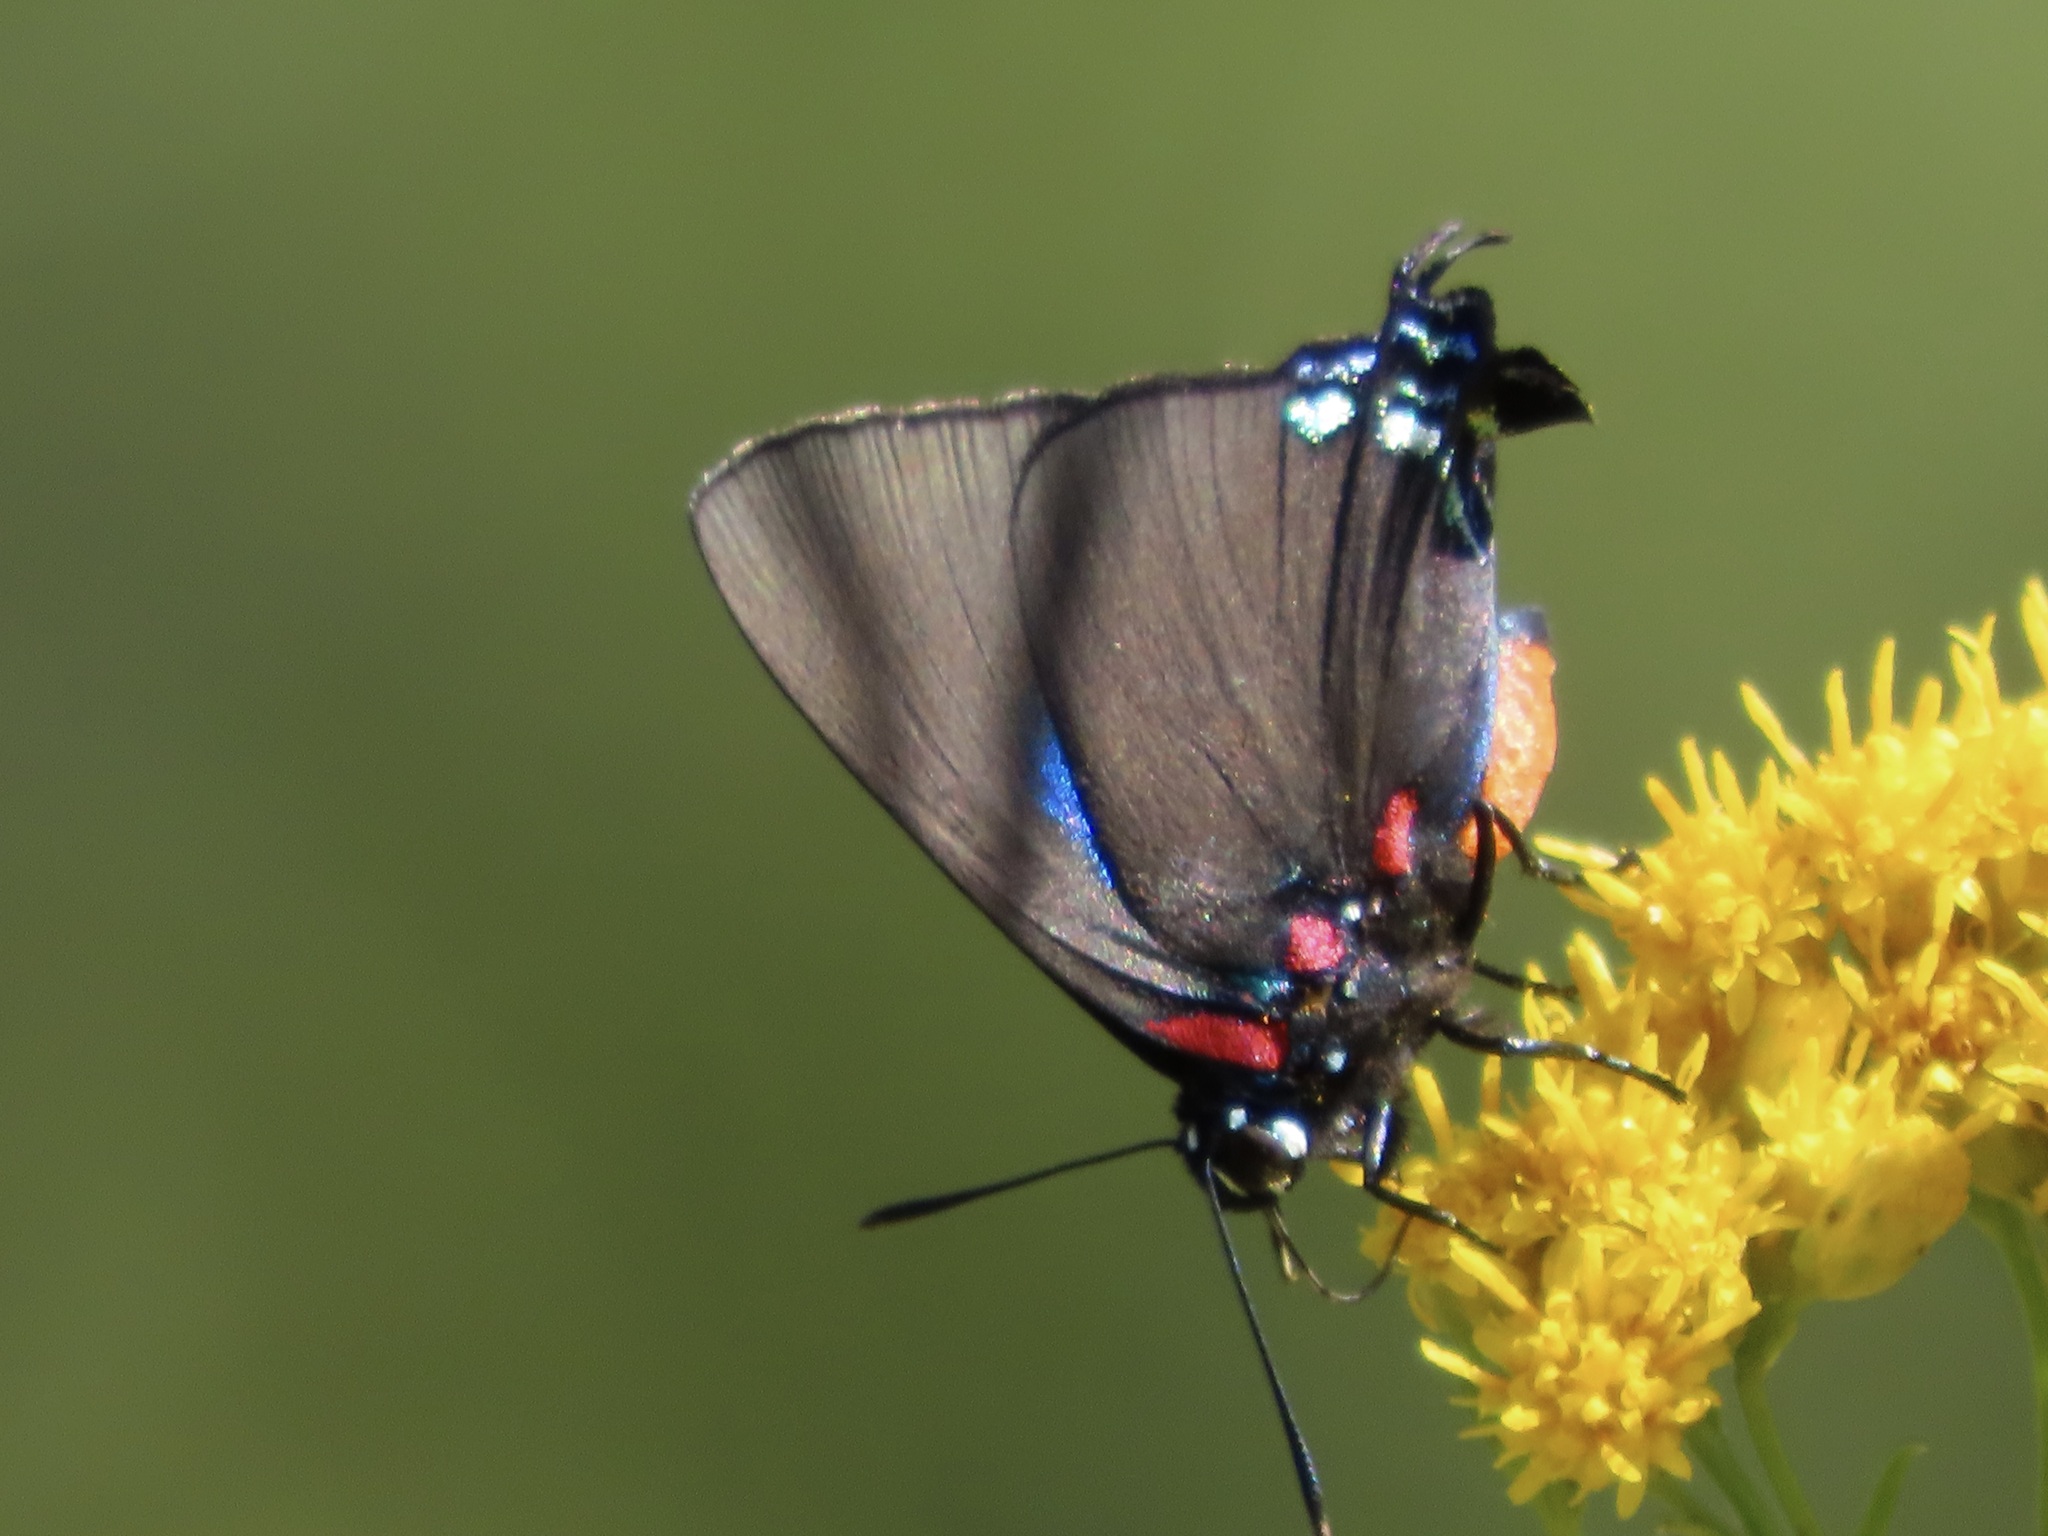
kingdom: Animalia
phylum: Arthropoda
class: Insecta
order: Lepidoptera
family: Lycaenidae
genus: Atlides
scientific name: Atlides halesus
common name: Great purple hairstreak
